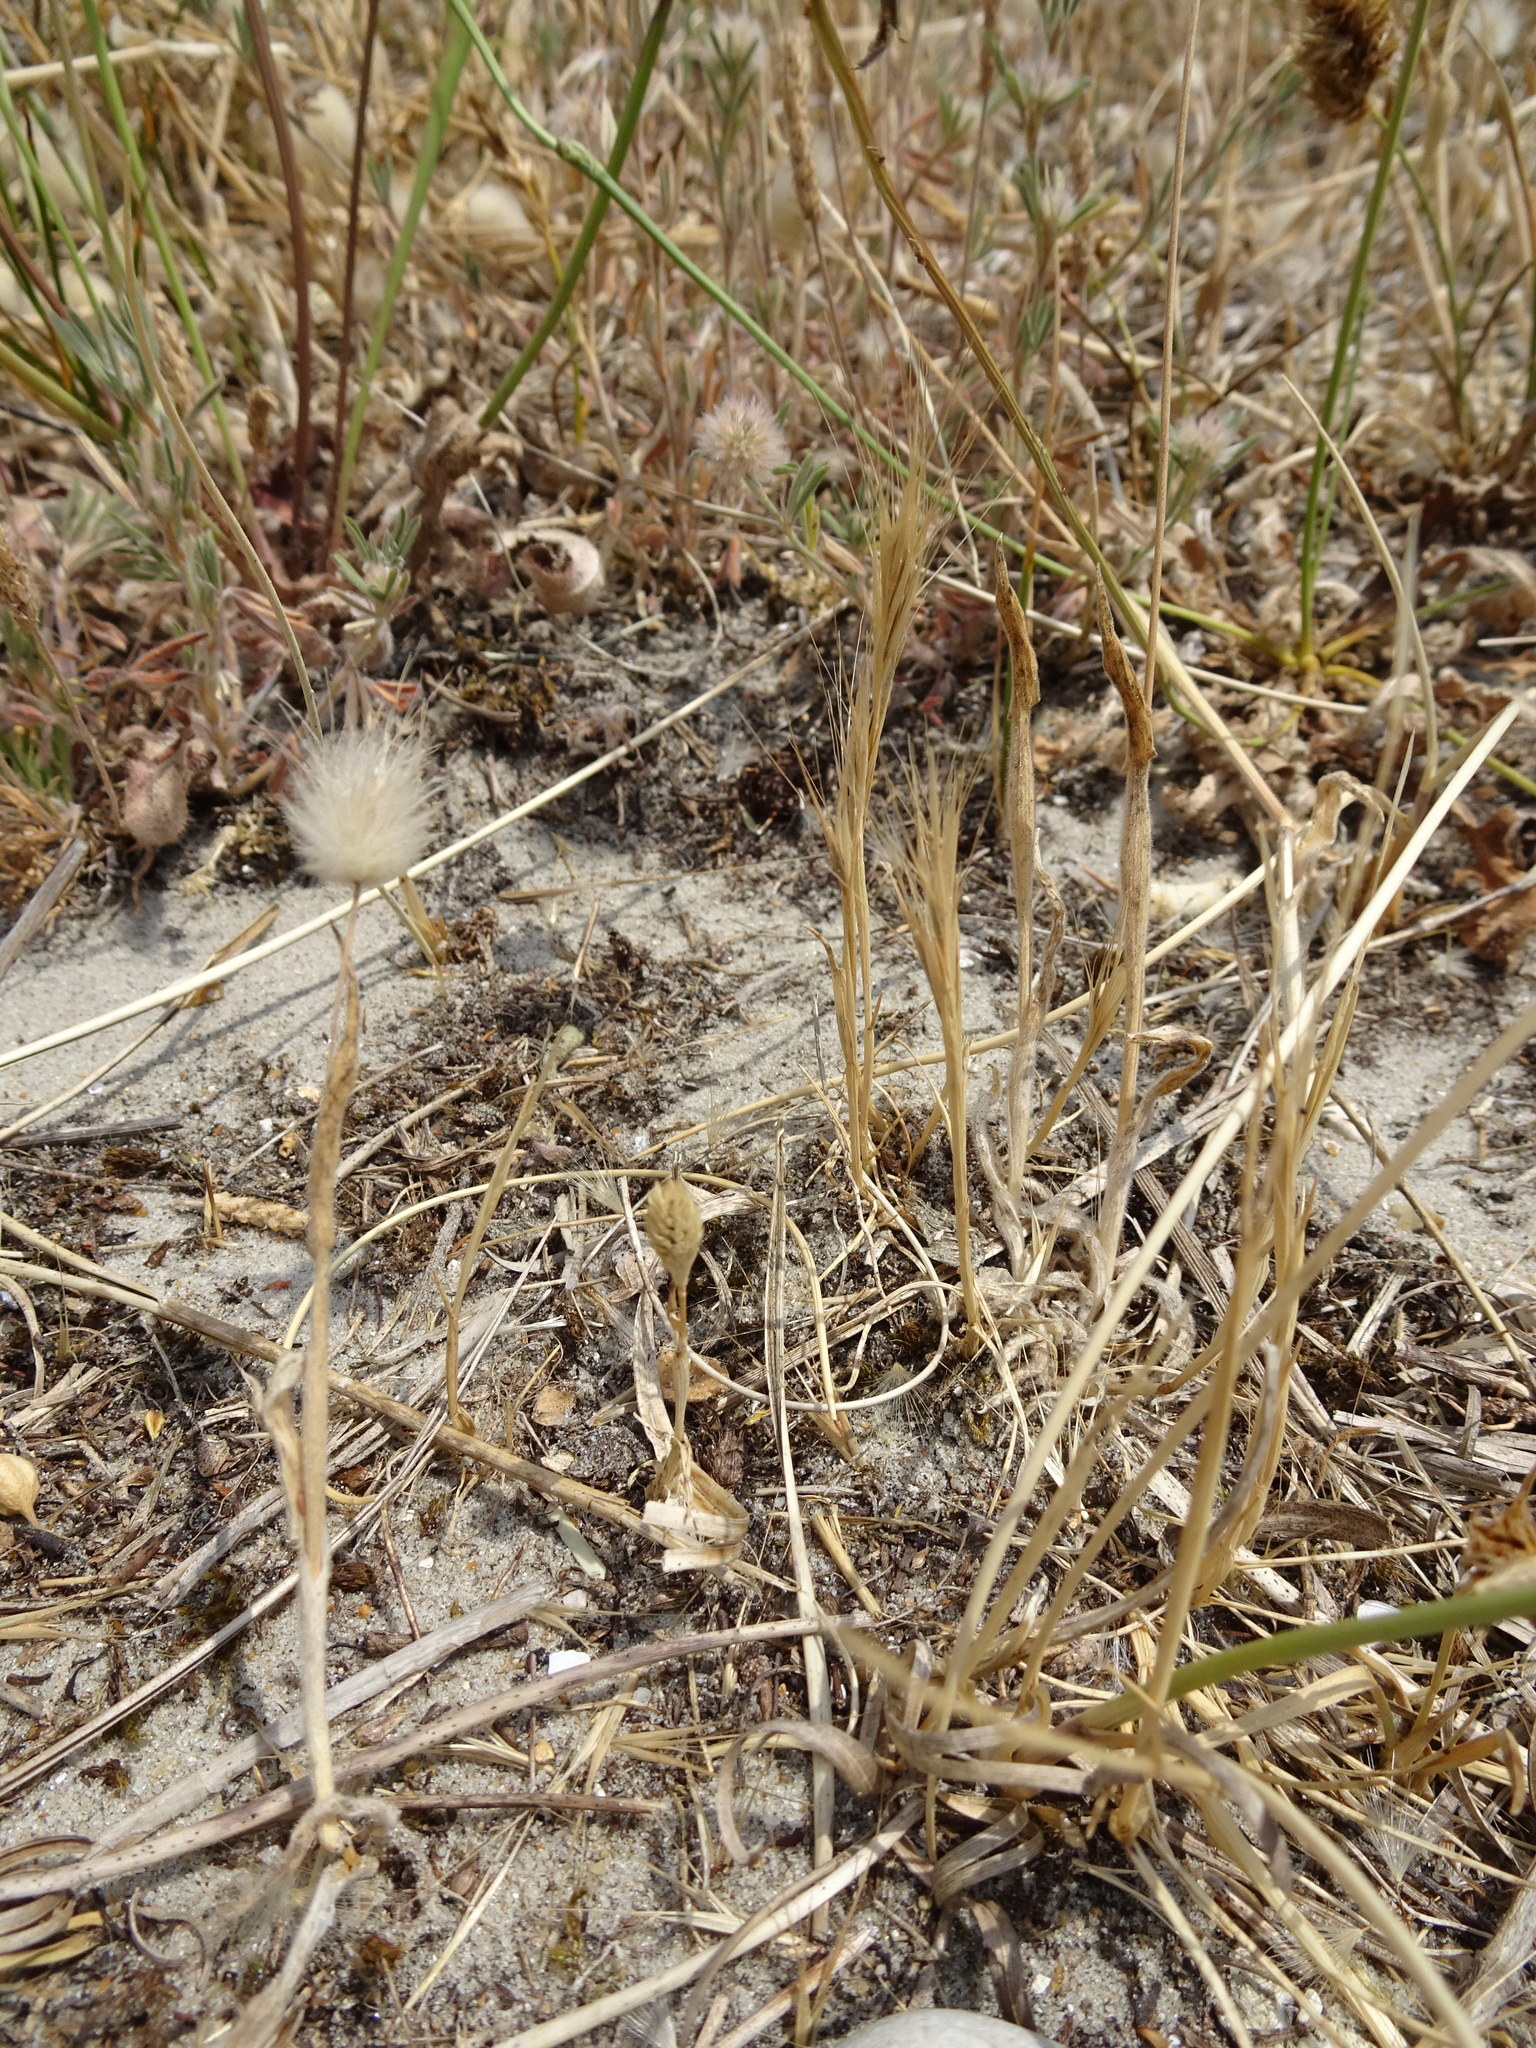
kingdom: Plantae
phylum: Tracheophyta
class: Liliopsida
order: Poales
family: Poaceae
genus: Phleum
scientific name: Phleum arenarium
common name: Sand cat's-tail
